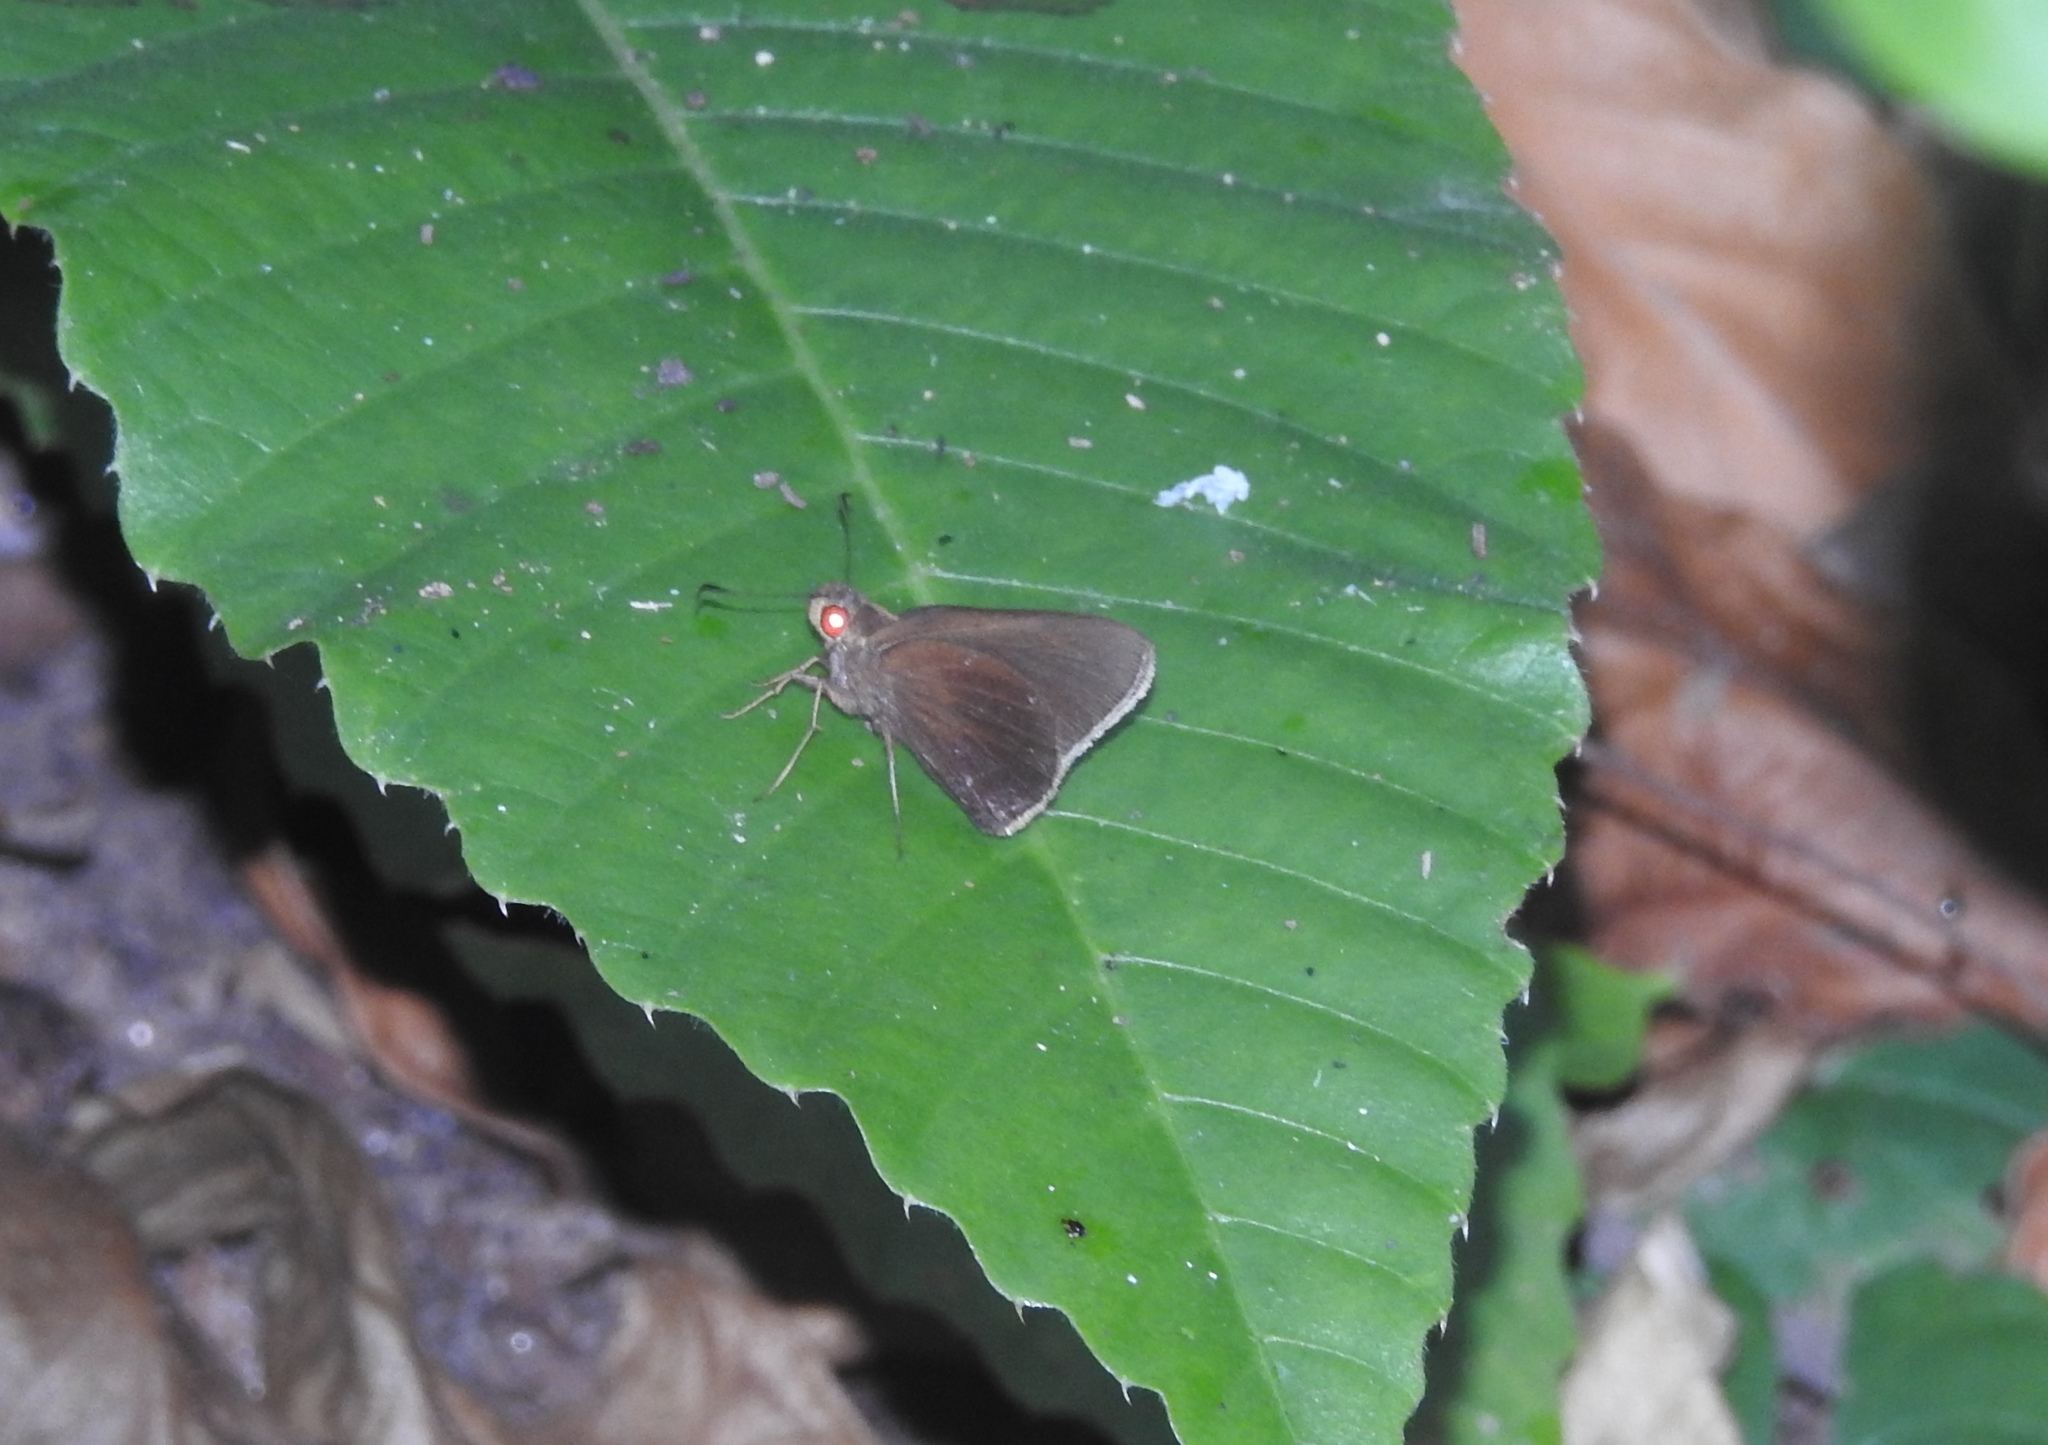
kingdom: Animalia
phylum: Arthropoda
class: Insecta
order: Lepidoptera
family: Hesperiidae
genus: Matapa
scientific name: Matapa aria
